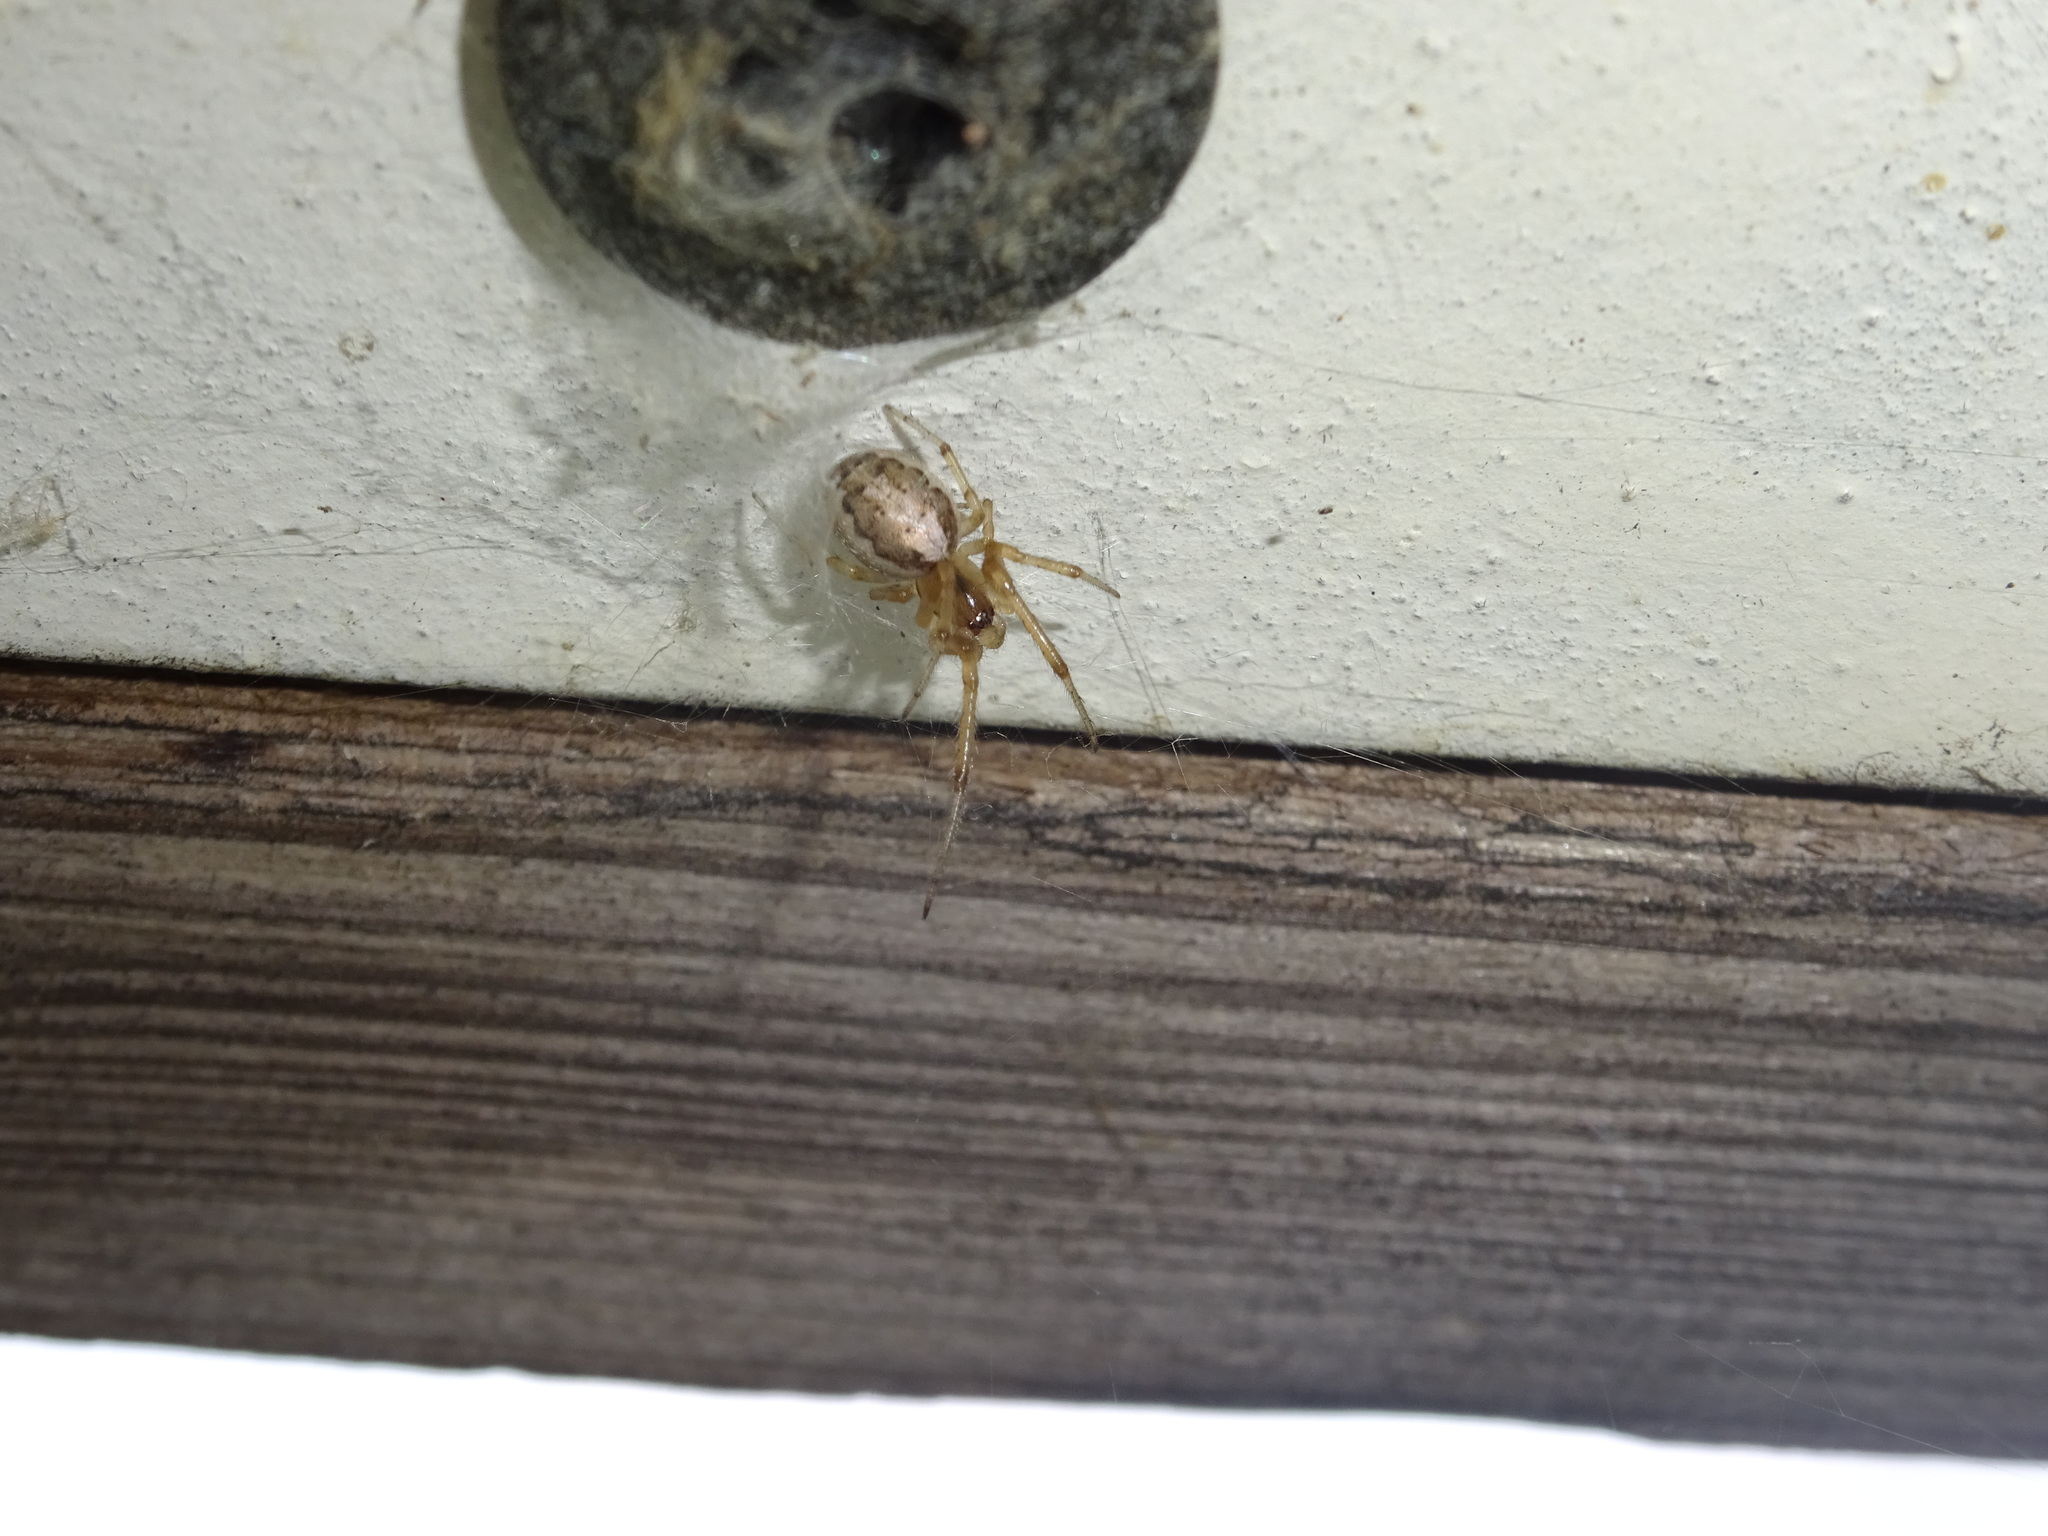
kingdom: Animalia
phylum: Arthropoda
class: Arachnida
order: Araneae
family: Araneidae
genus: Zygiella
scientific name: Zygiella x-notata
